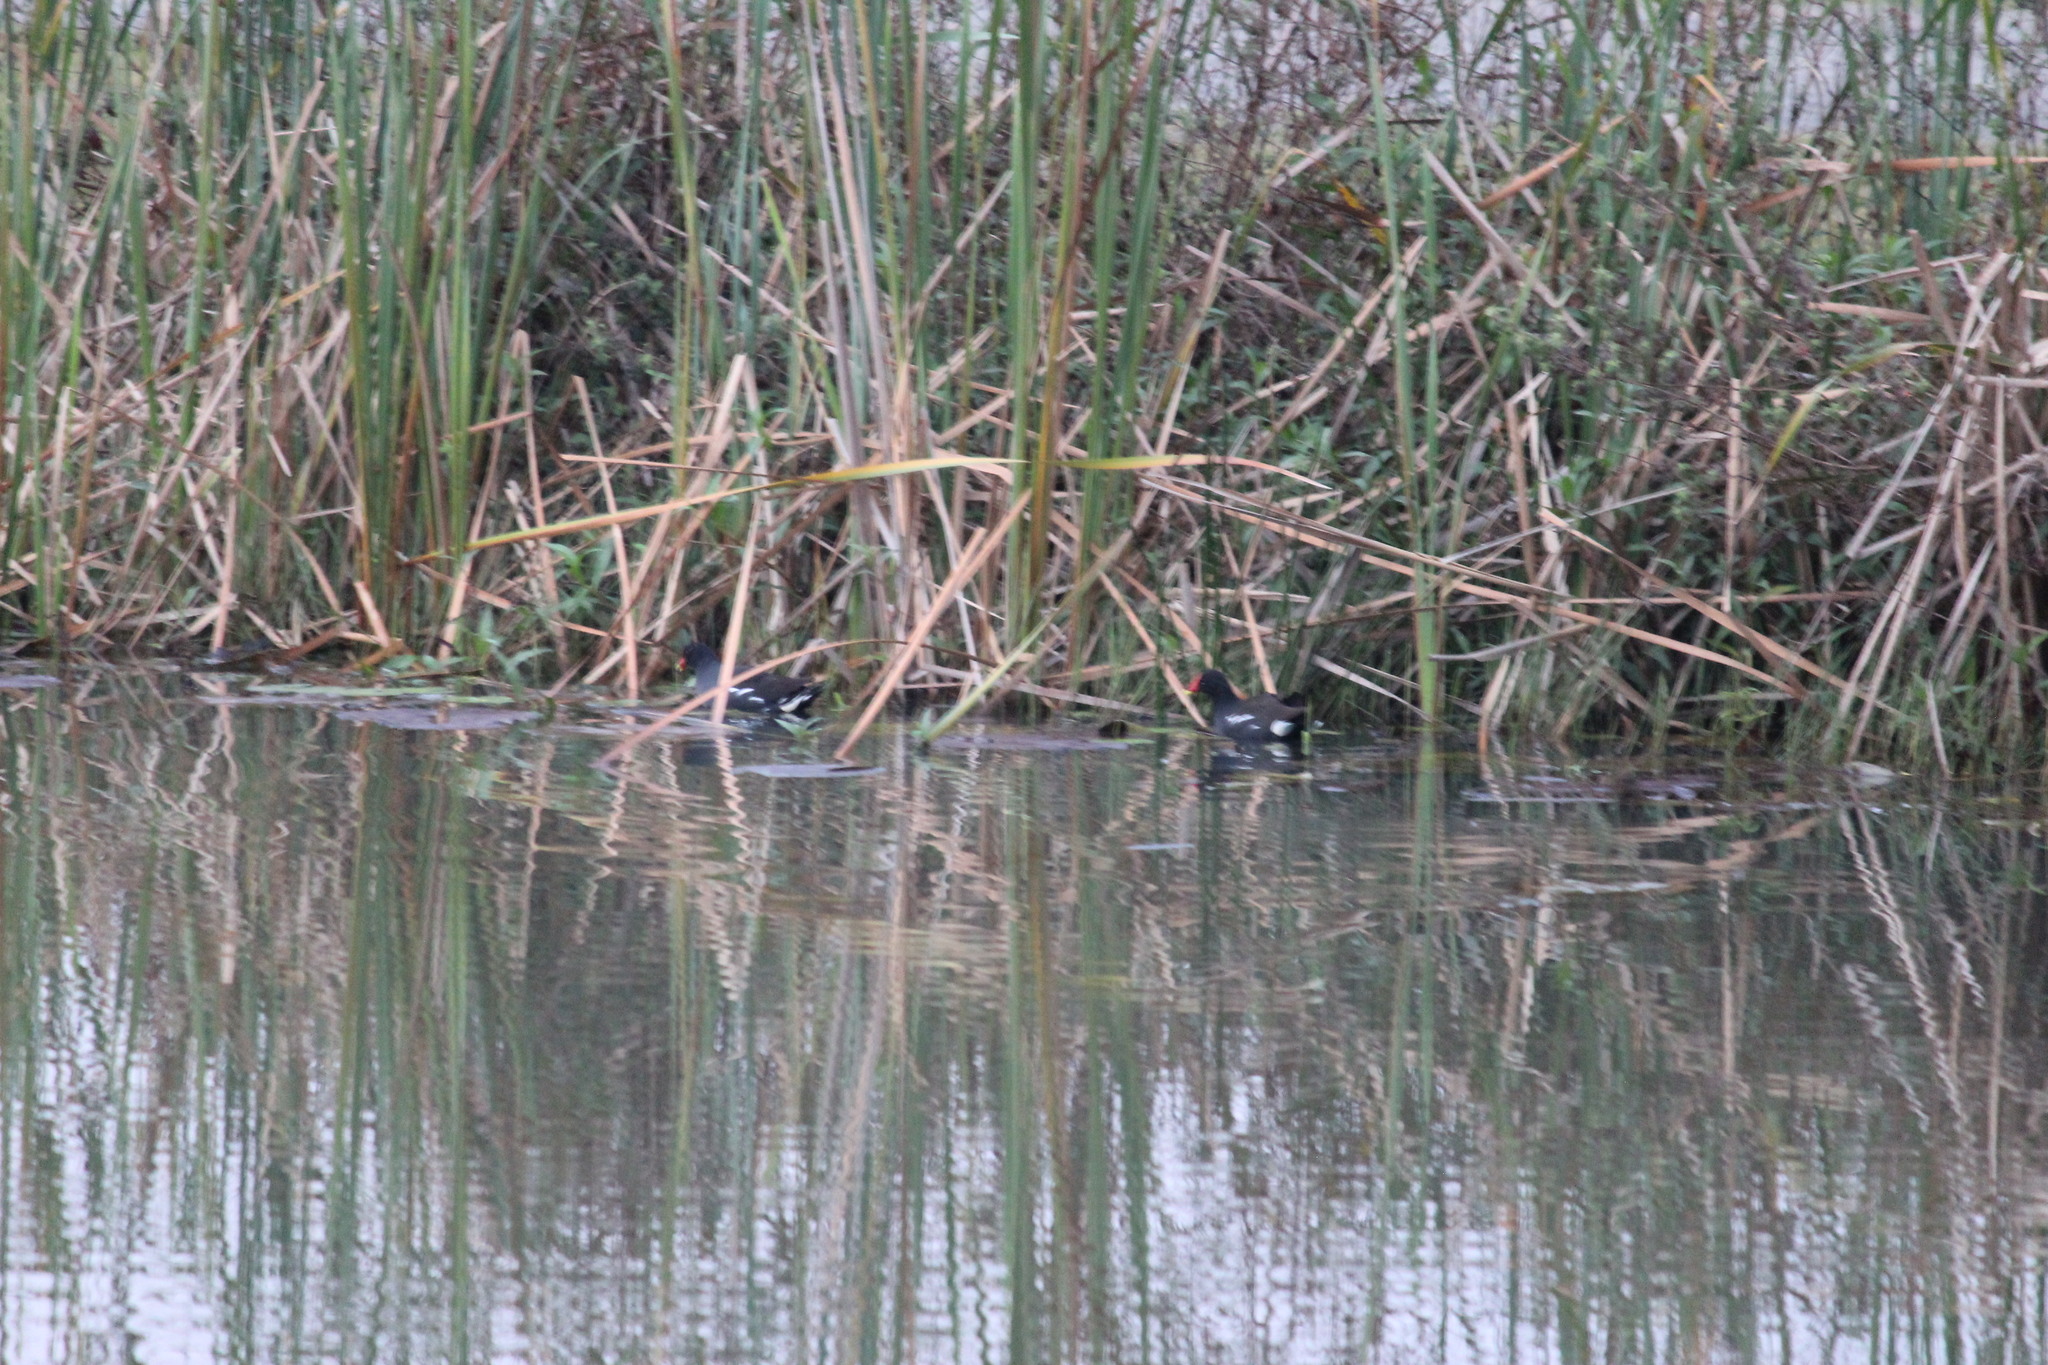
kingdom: Animalia
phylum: Chordata
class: Aves
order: Gruiformes
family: Rallidae
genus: Gallinula
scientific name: Gallinula chloropus
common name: Common moorhen
